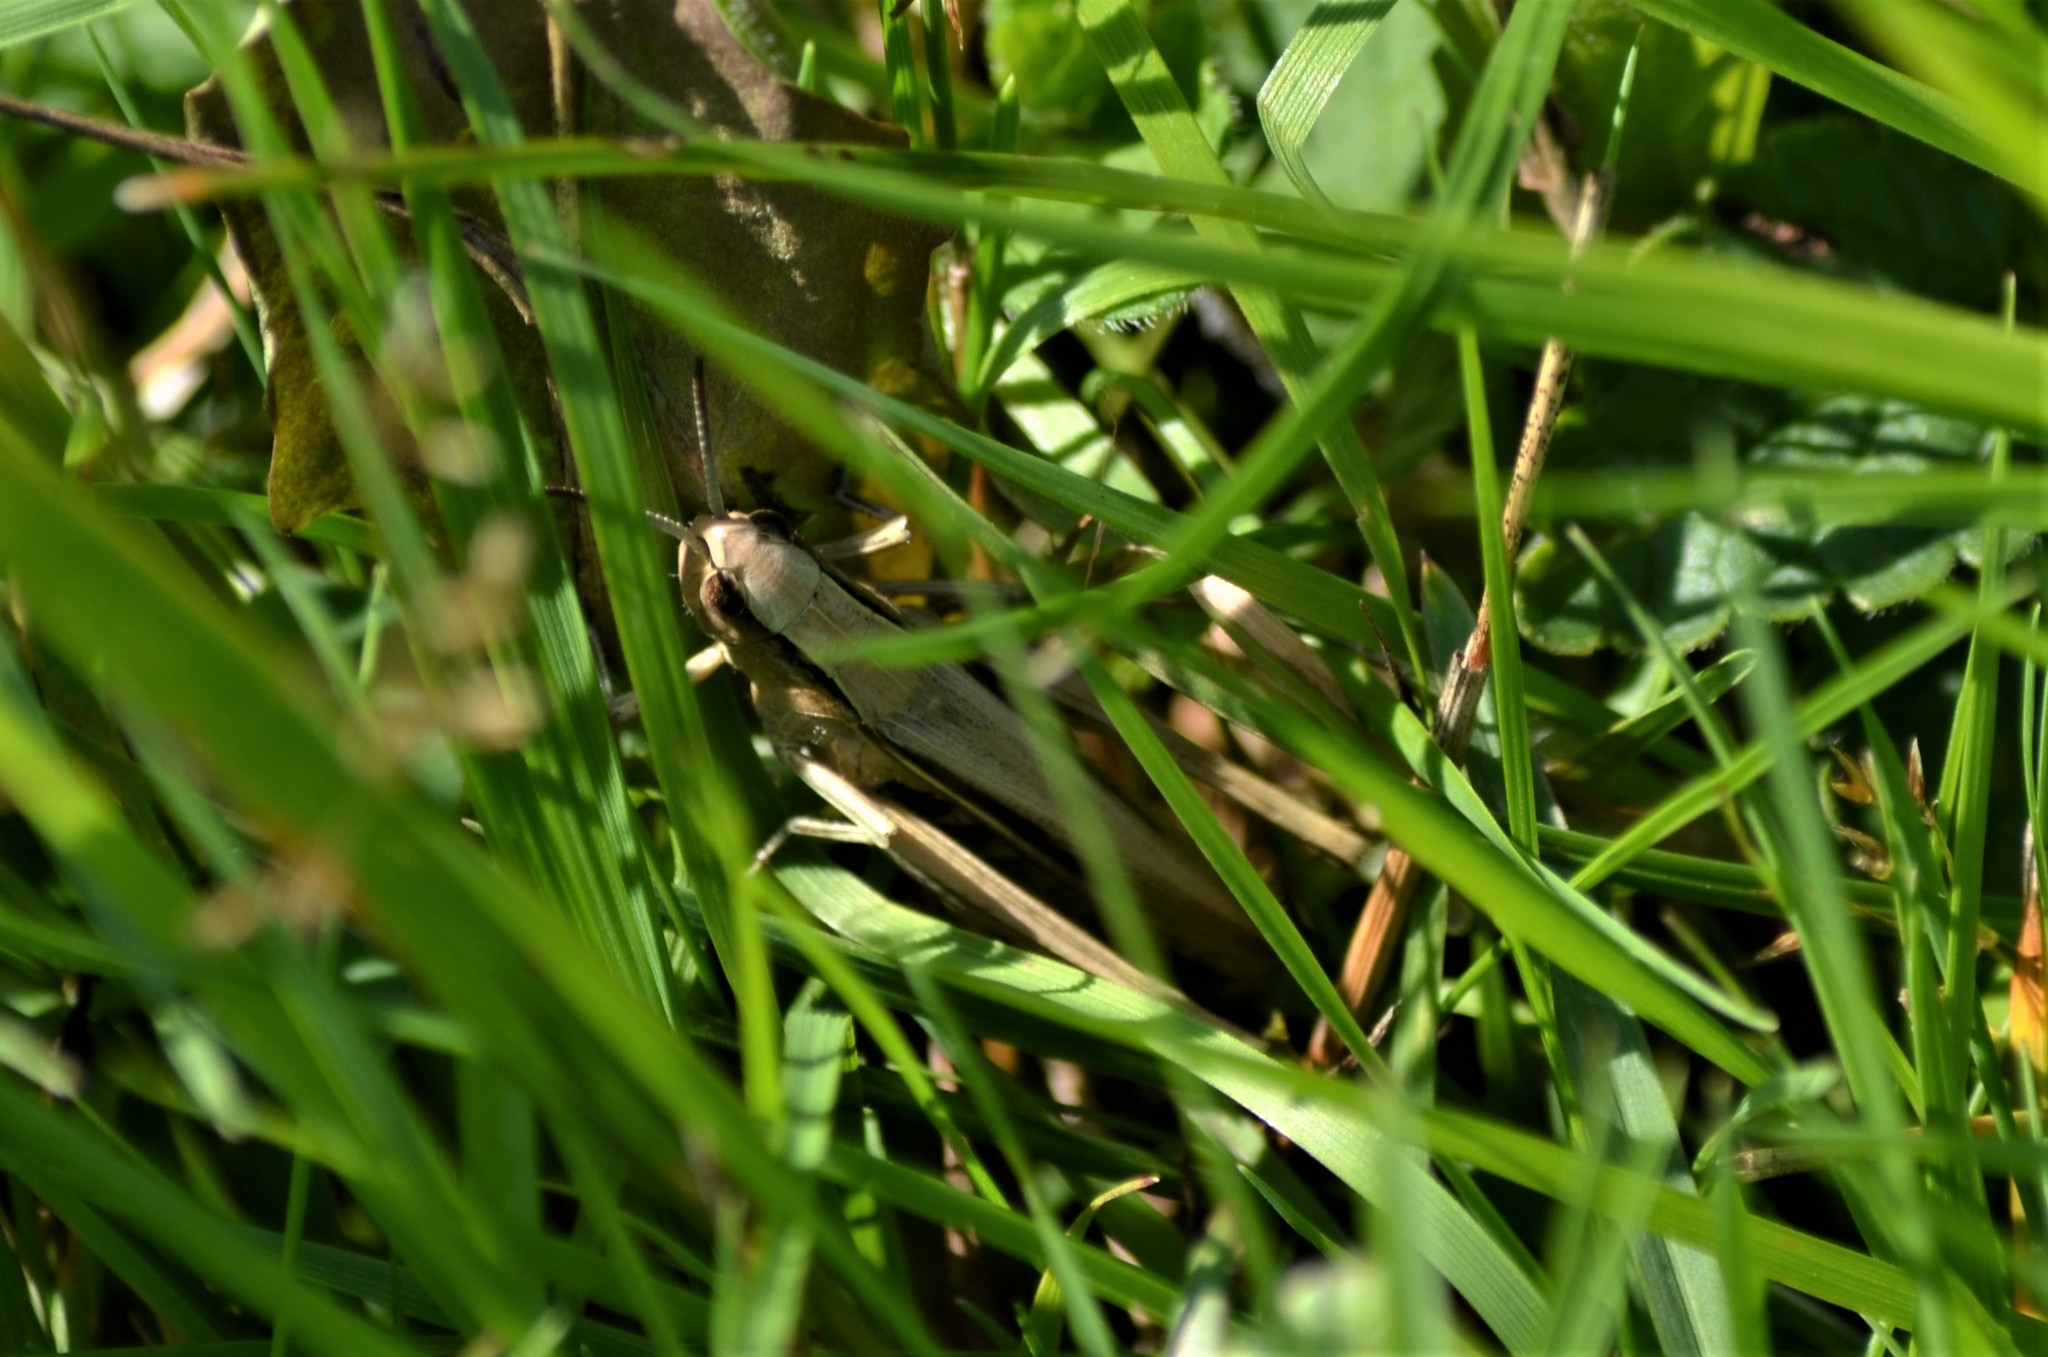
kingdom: Animalia
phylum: Arthropoda
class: Insecta
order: Orthoptera
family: Acrididae
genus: Chorthippus
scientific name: Chorthippus albomarginatus
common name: Lesser marsh grasshopper
